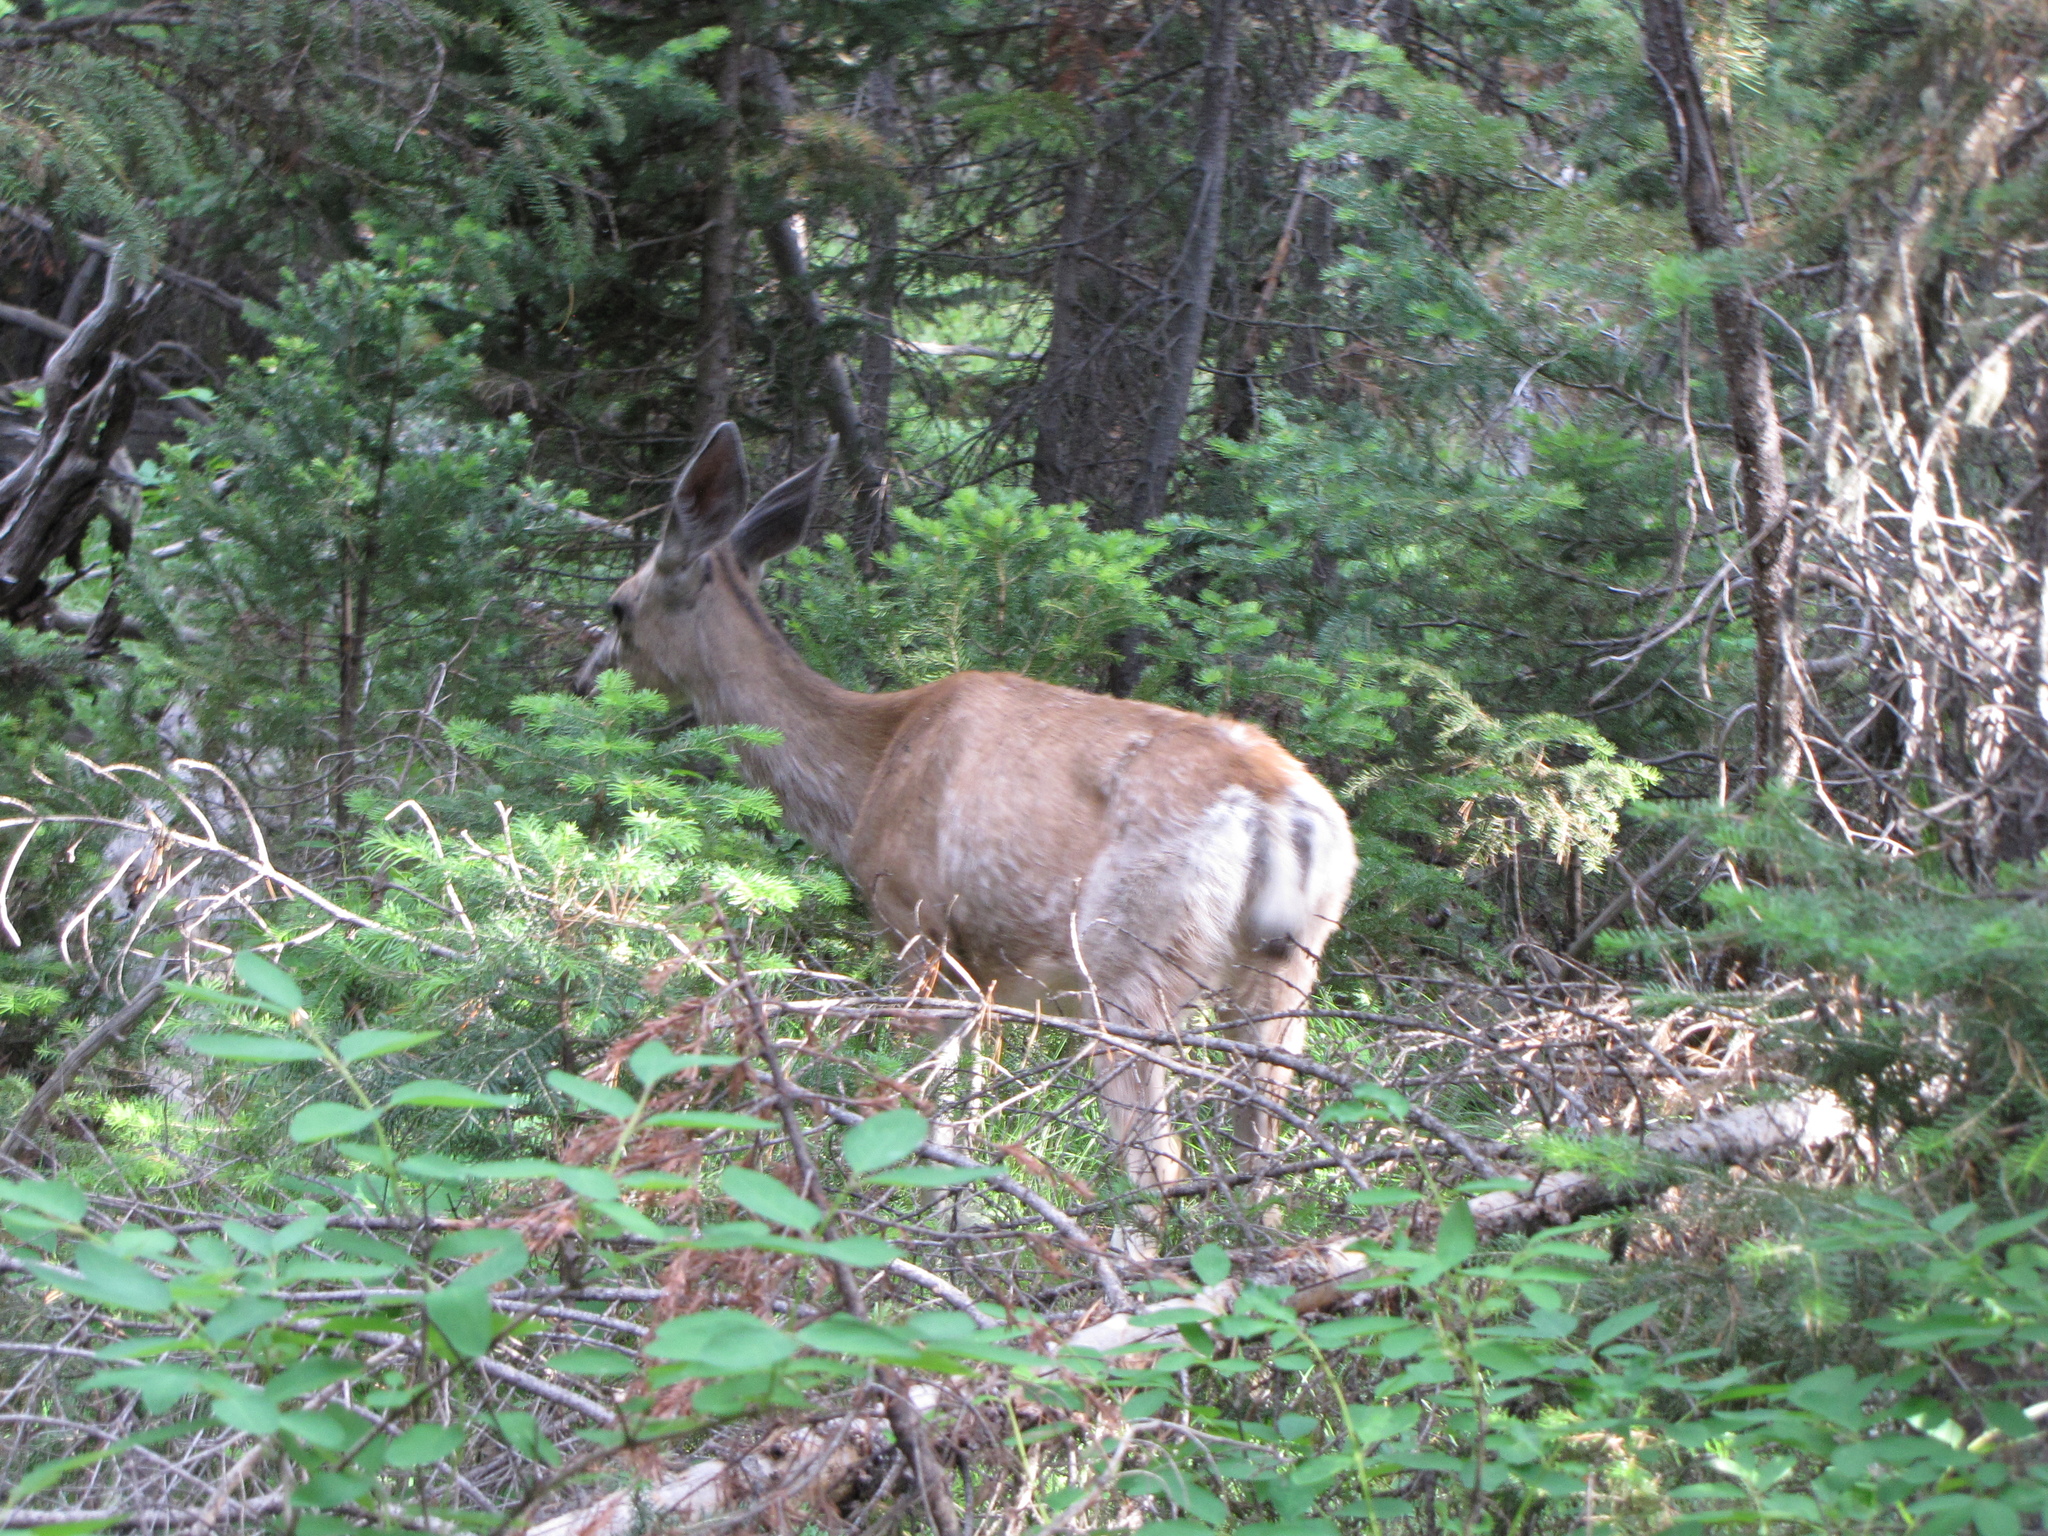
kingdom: Animalia
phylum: Chordata
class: Mammalia
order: Artiodactyla
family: Cervidae
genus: Odocoileus
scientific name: Odocoileus hemionus
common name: Mule deer
